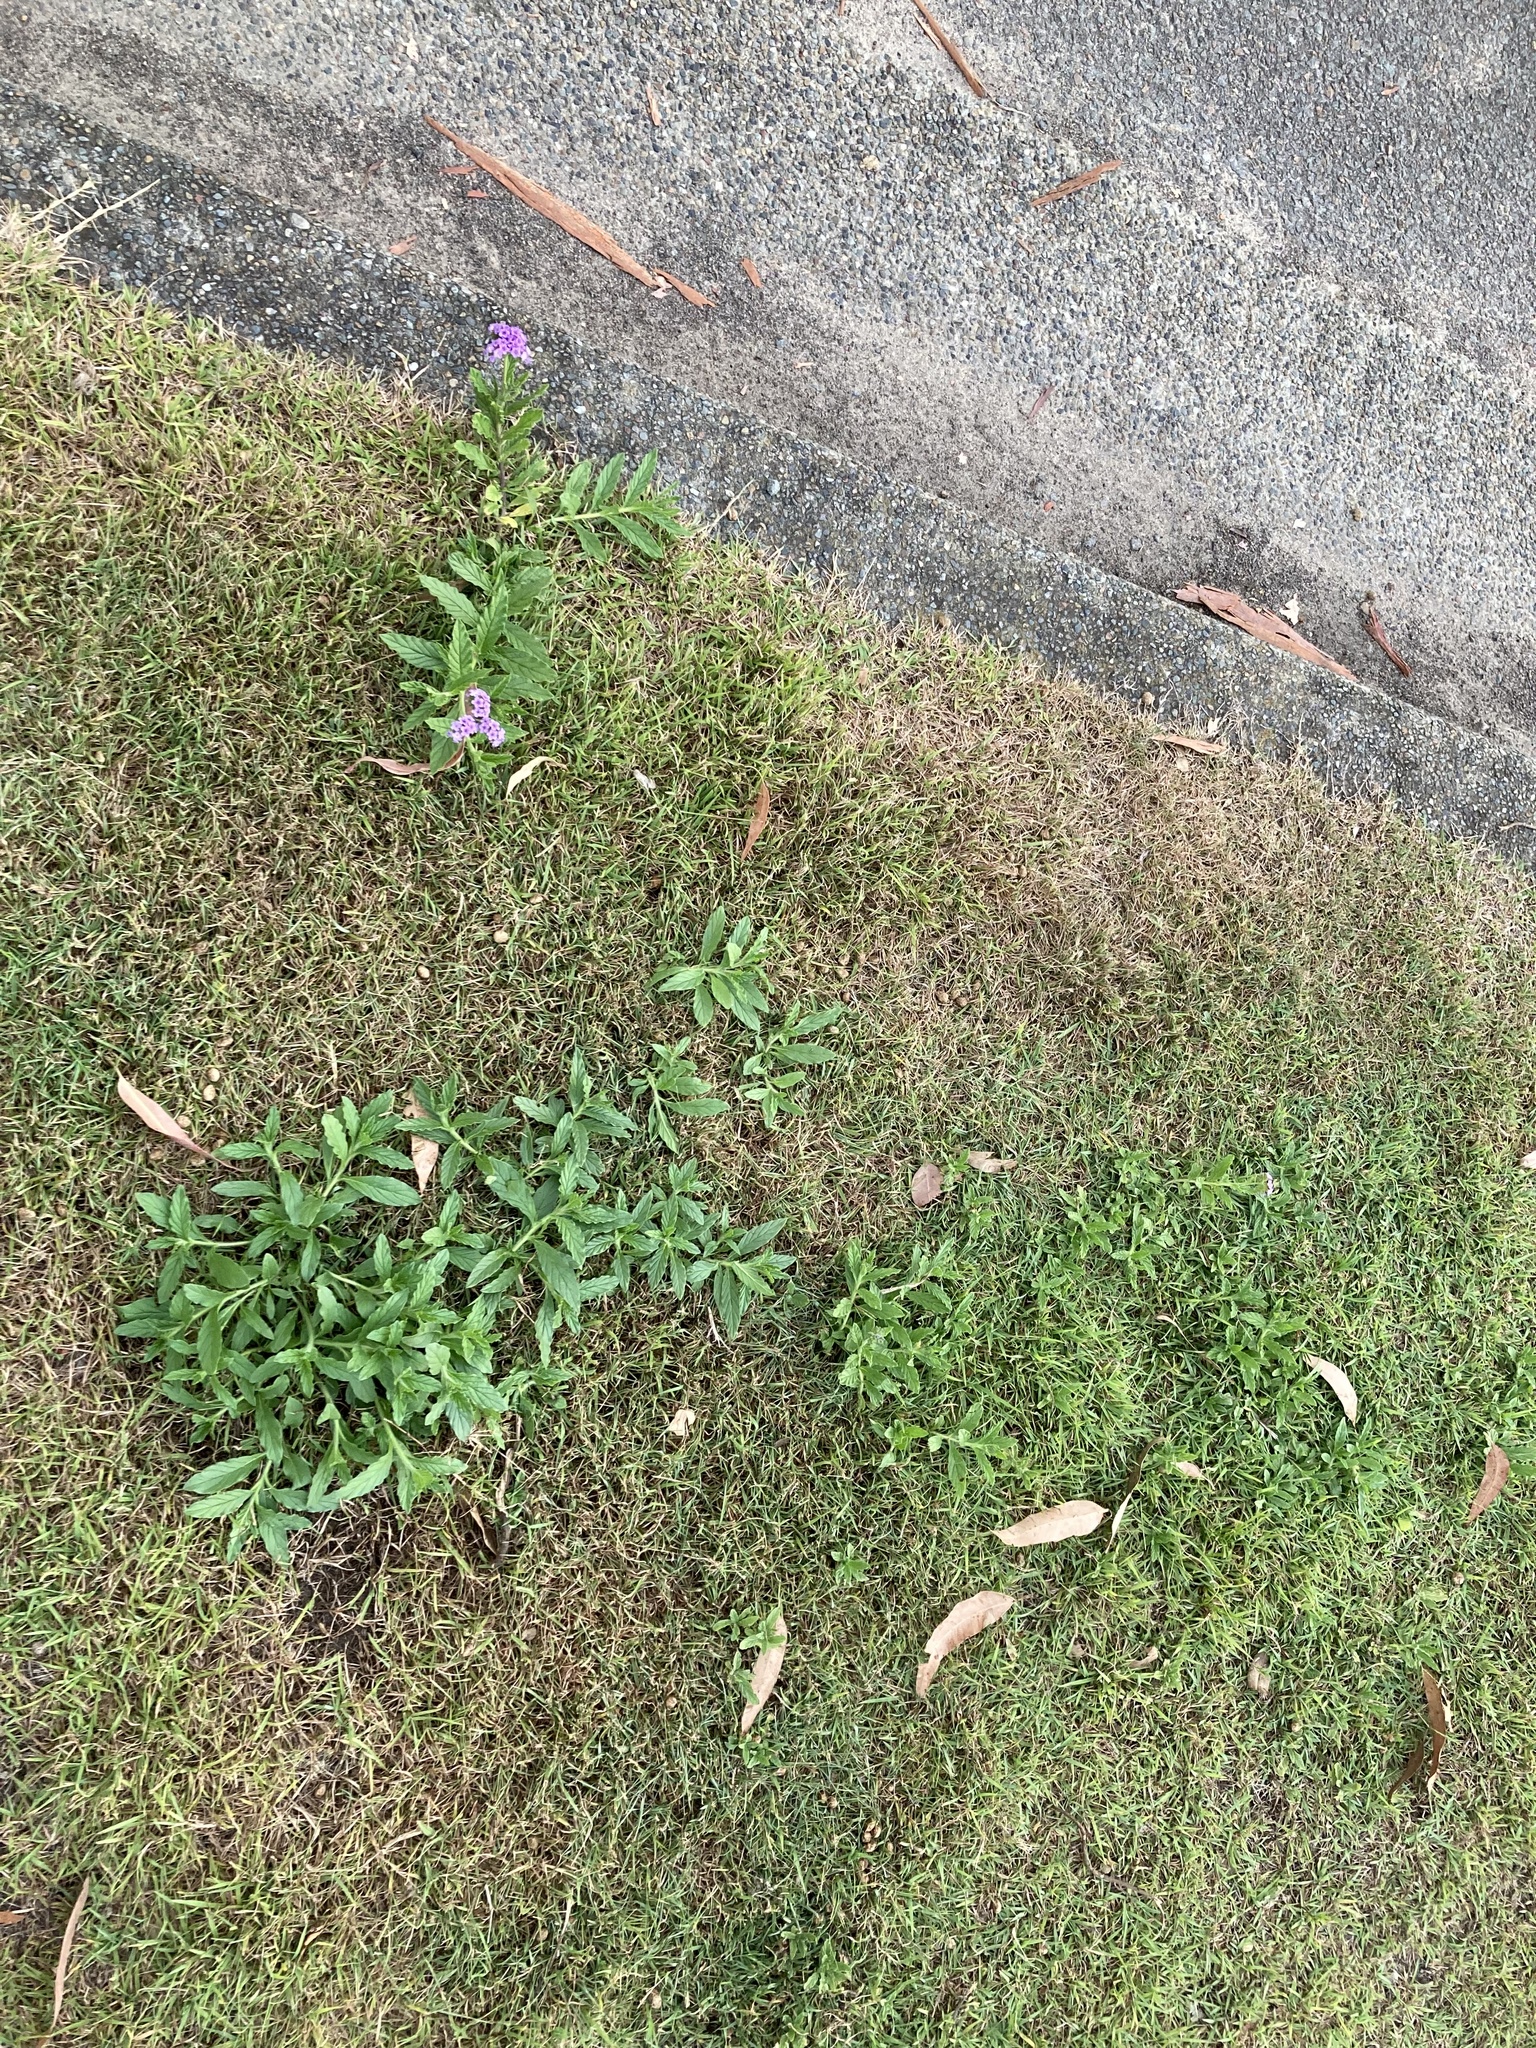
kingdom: Plantae
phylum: Tracheophyta
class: Magnoliopsida
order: Boraginales
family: Heliotropiaceae
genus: Heliotropium
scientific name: Heliotropium amplexicaule
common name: Clasping heliotrope
